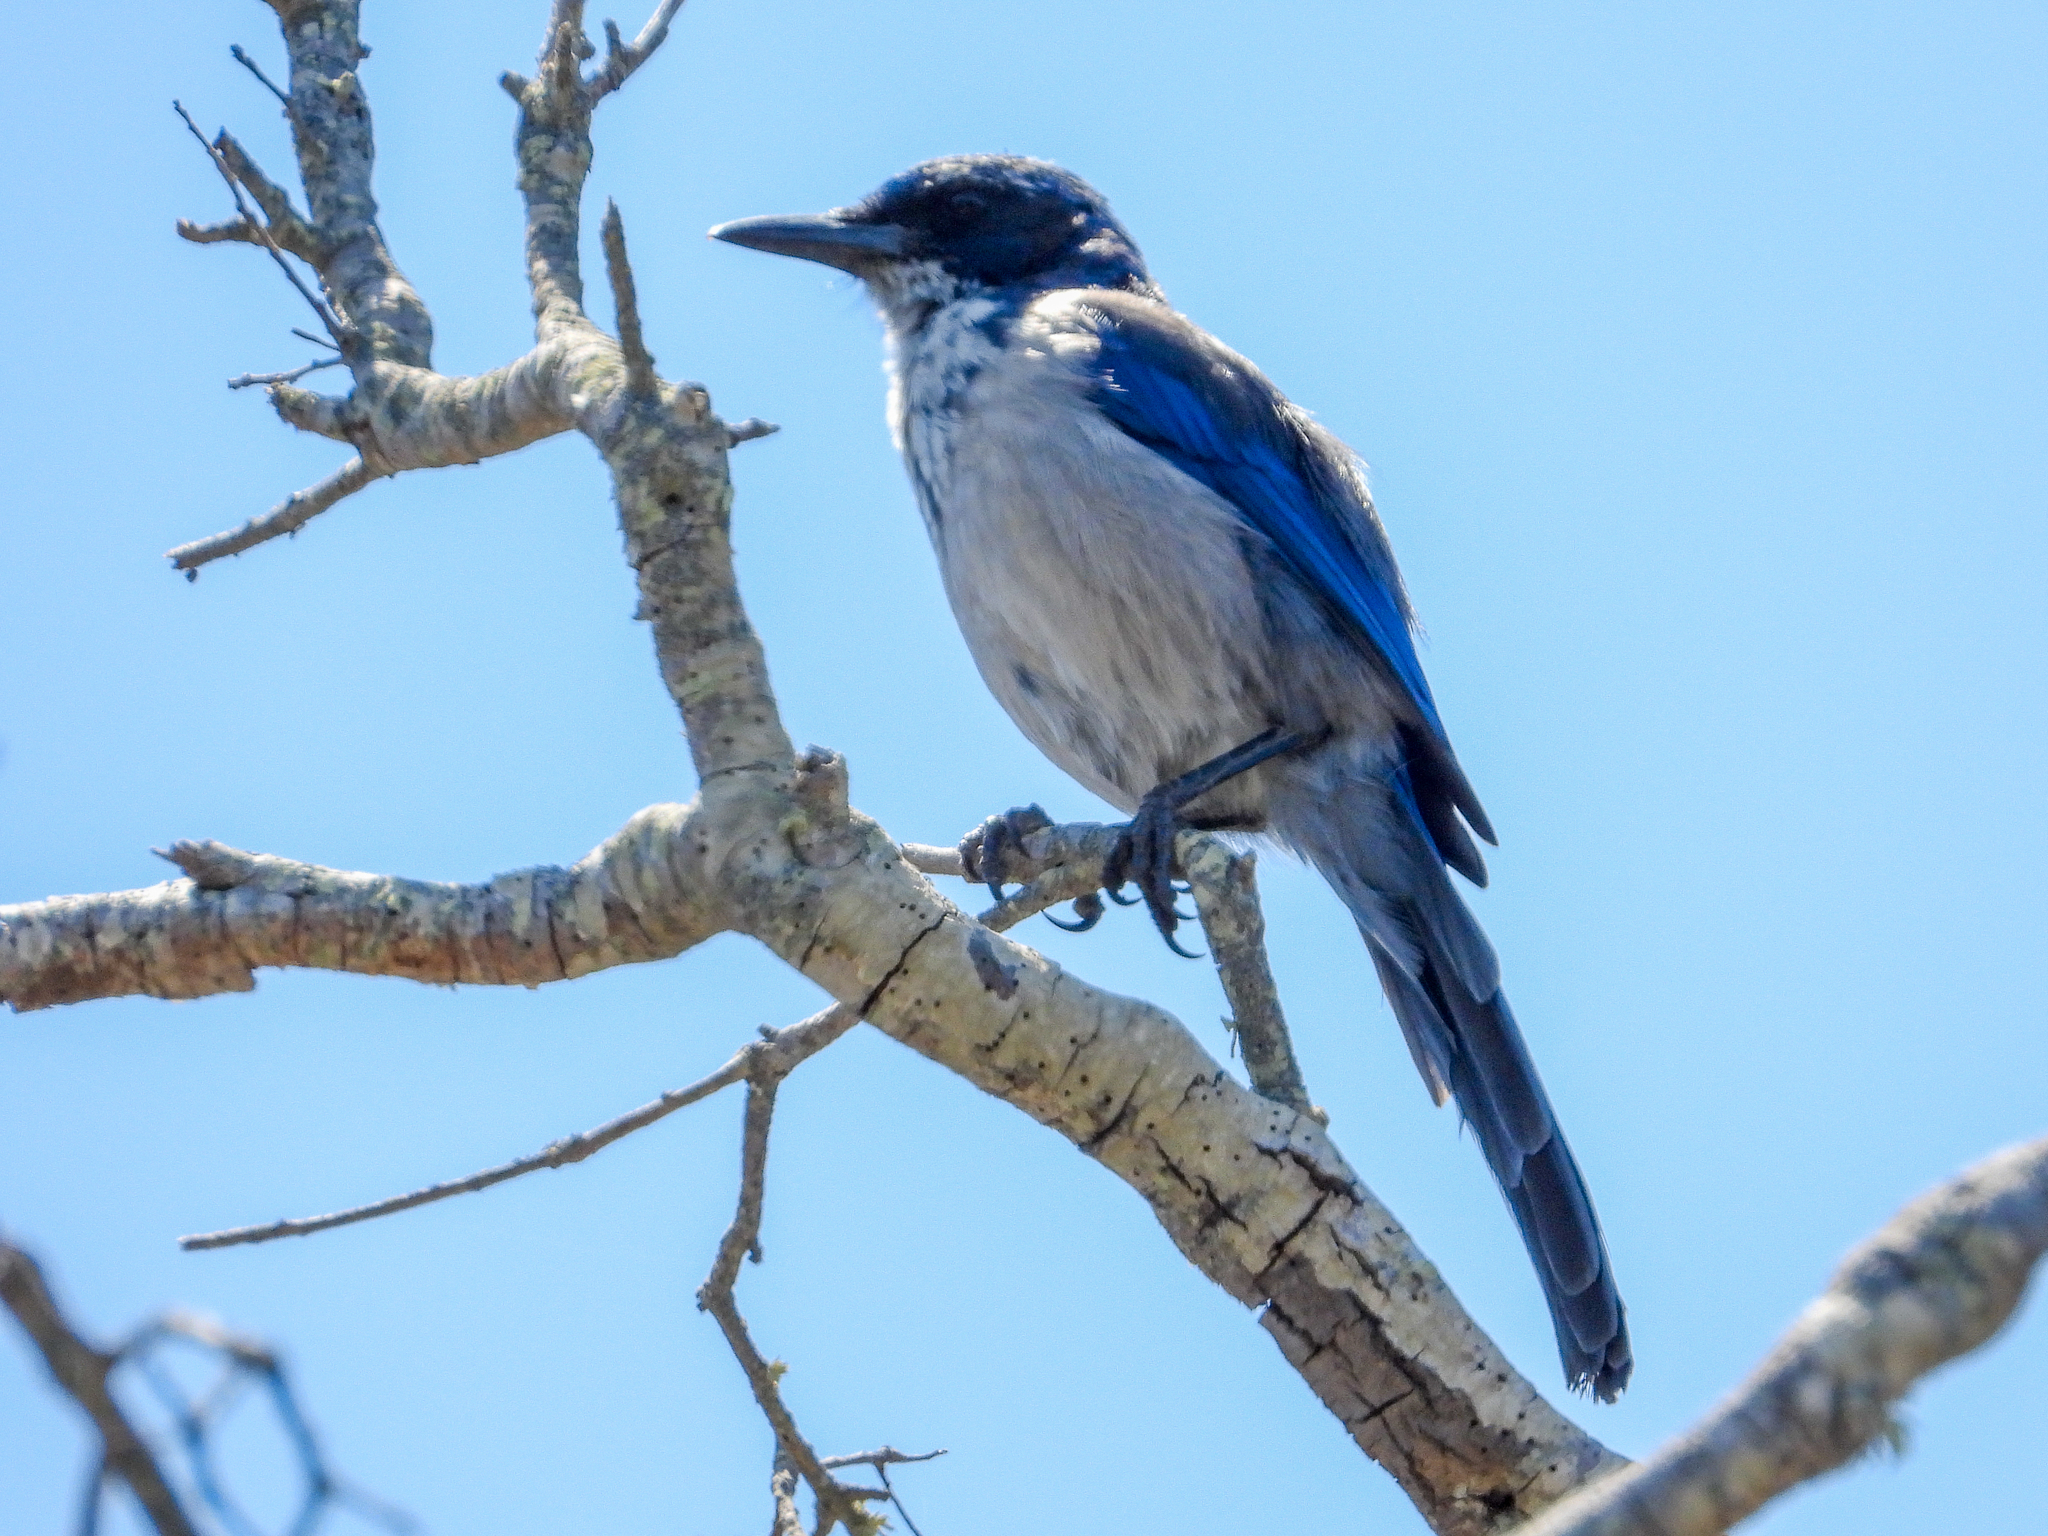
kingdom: Animalia
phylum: Chordata
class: Aves
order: Passeriformes
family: Corvidae
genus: Aphelocoma
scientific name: Aphelocoma insularis
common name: Island scrub-jay
